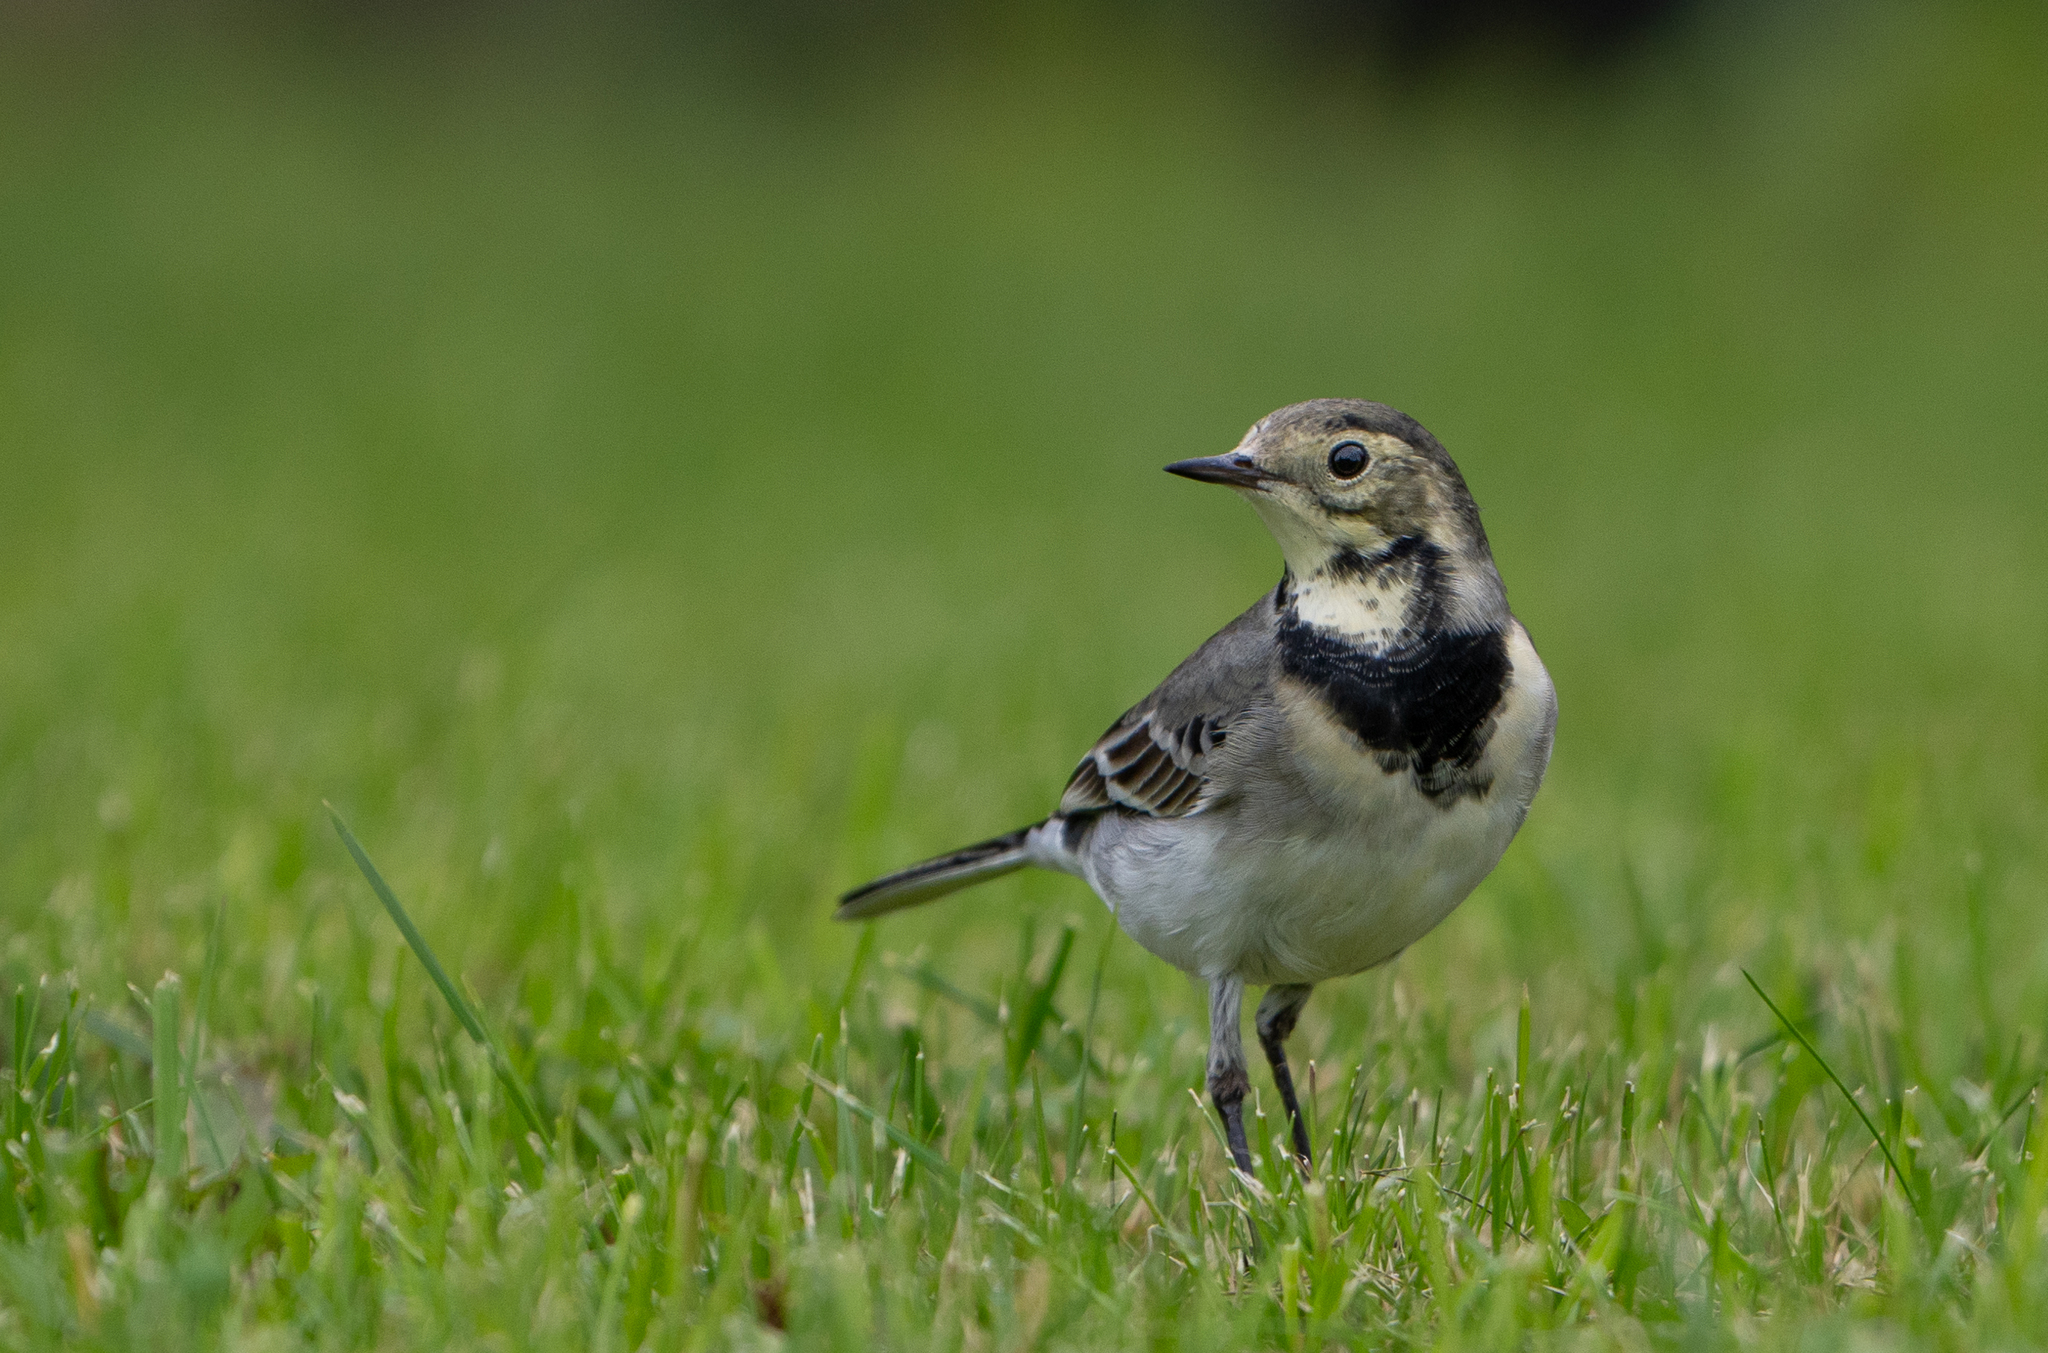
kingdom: Animalia
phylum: Chordata
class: Aves
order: Passeriformes
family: Motacillidae
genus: Motacilla
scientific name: Motacilla alba
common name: White wagtail
